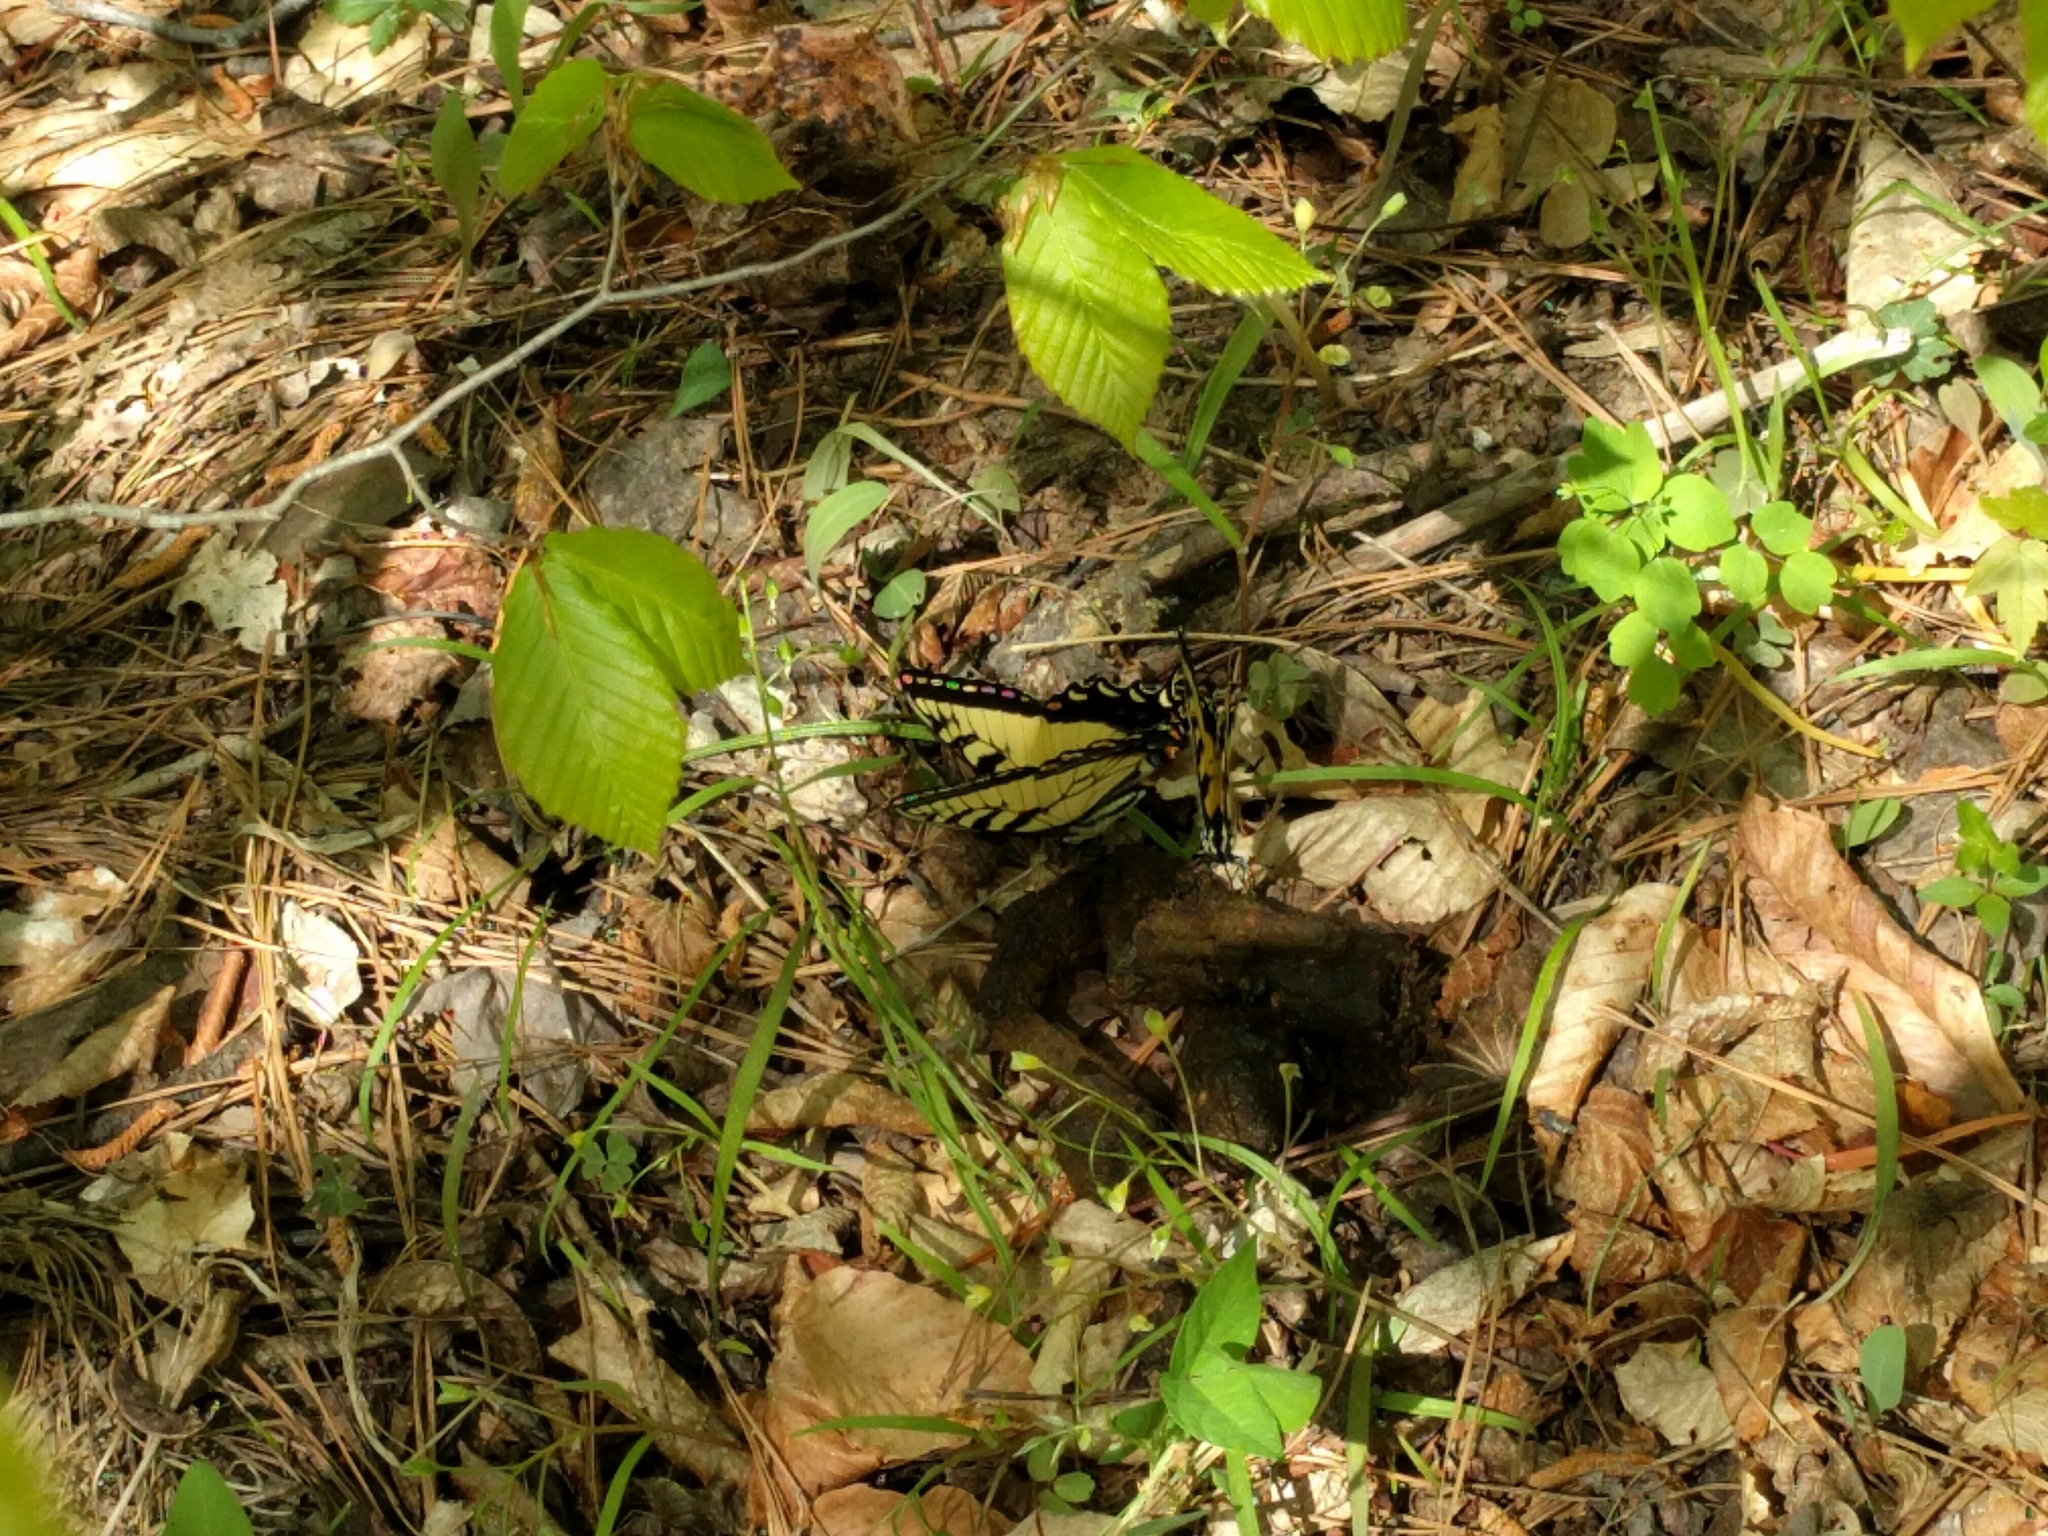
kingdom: Animalia
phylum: Arthropoda
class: Insecta
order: Lepidoptera
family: Papilionidae
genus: Papilio
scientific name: Papilio glaucus
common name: Tiger swallowtail
